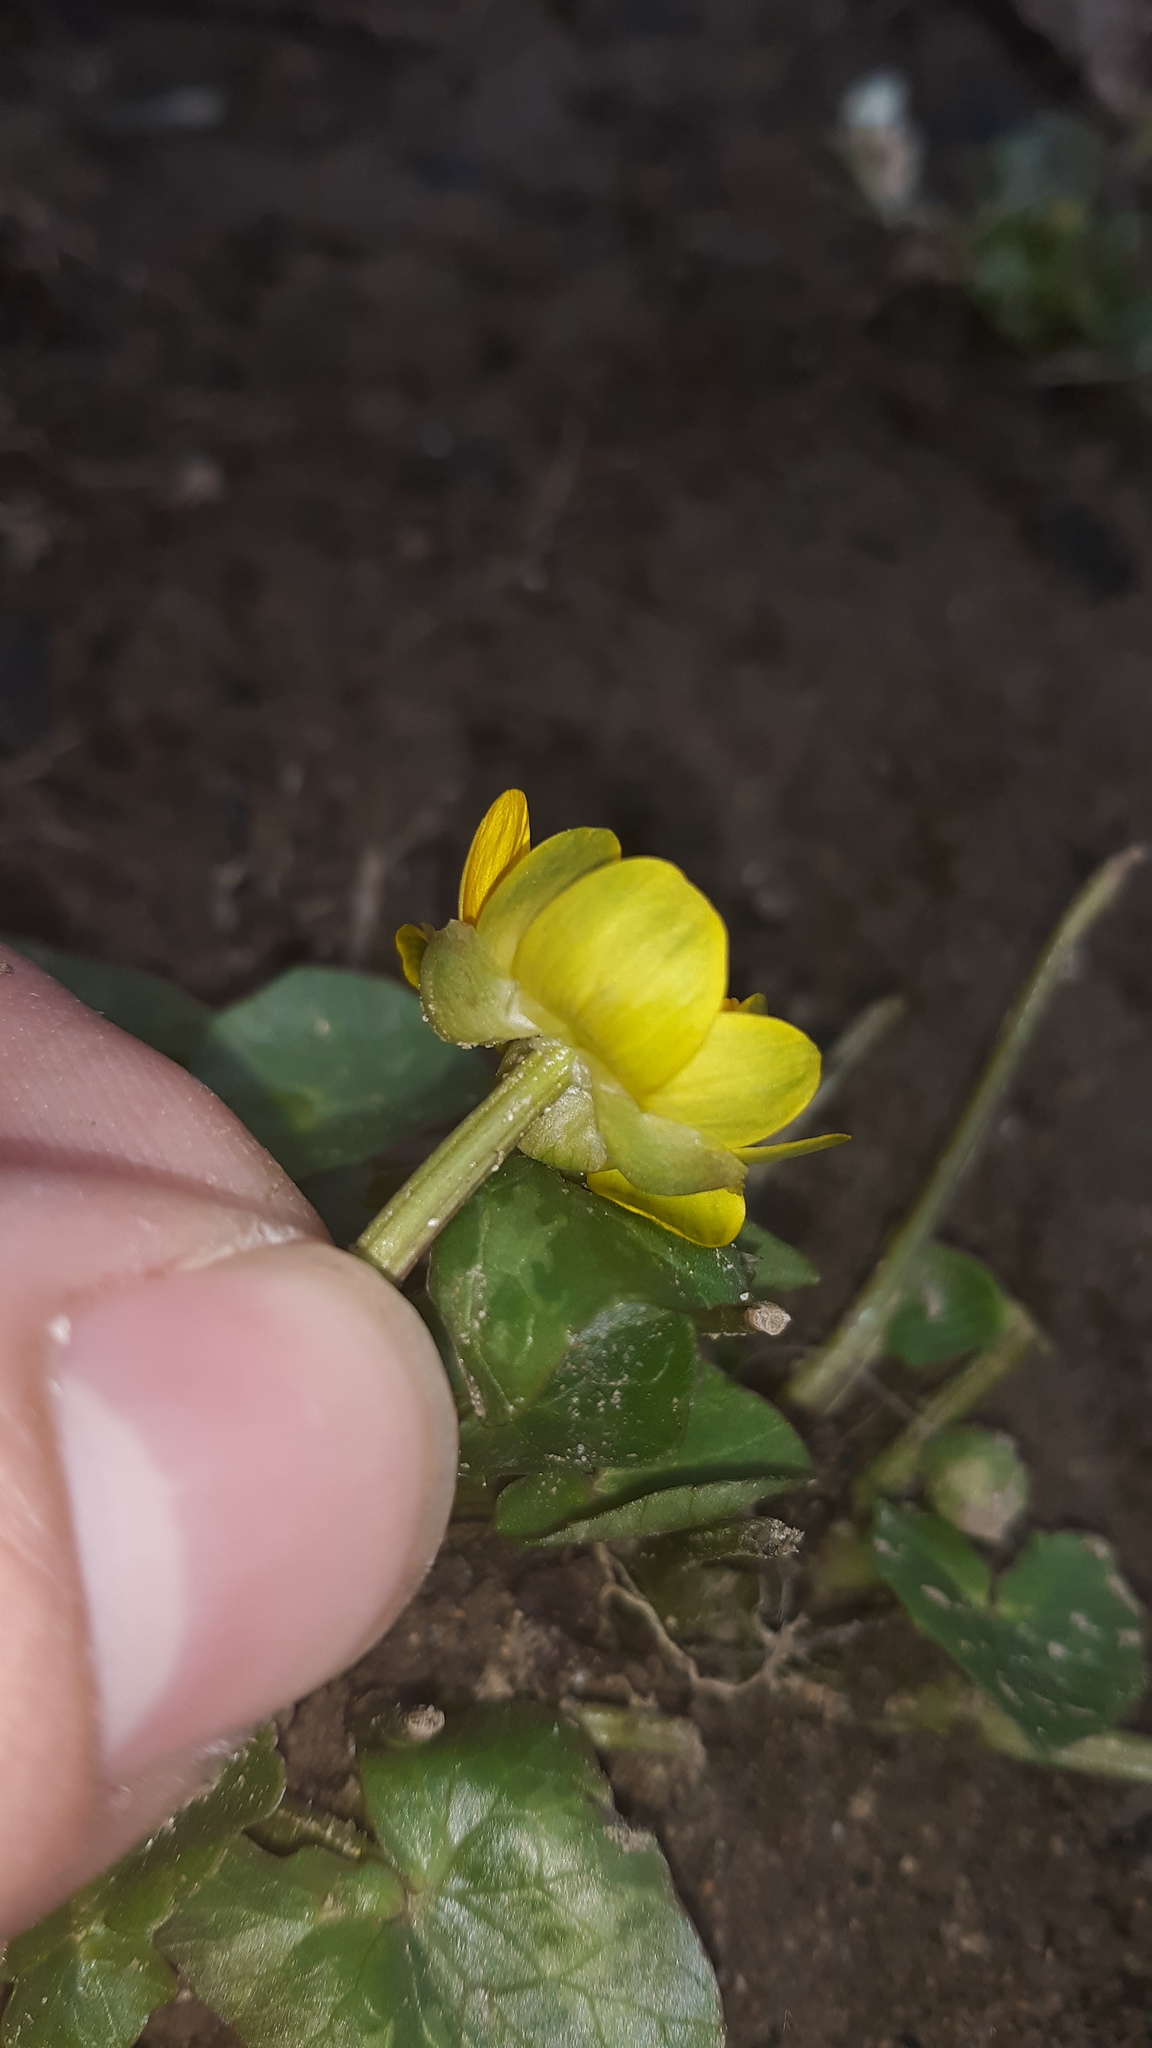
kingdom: Plantae
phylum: Tracheophyta
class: Magnoliopsida
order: Ranunculales
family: Ranunculaceae
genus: Ficaria
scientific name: Ficaria verna
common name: Lesser celandine
